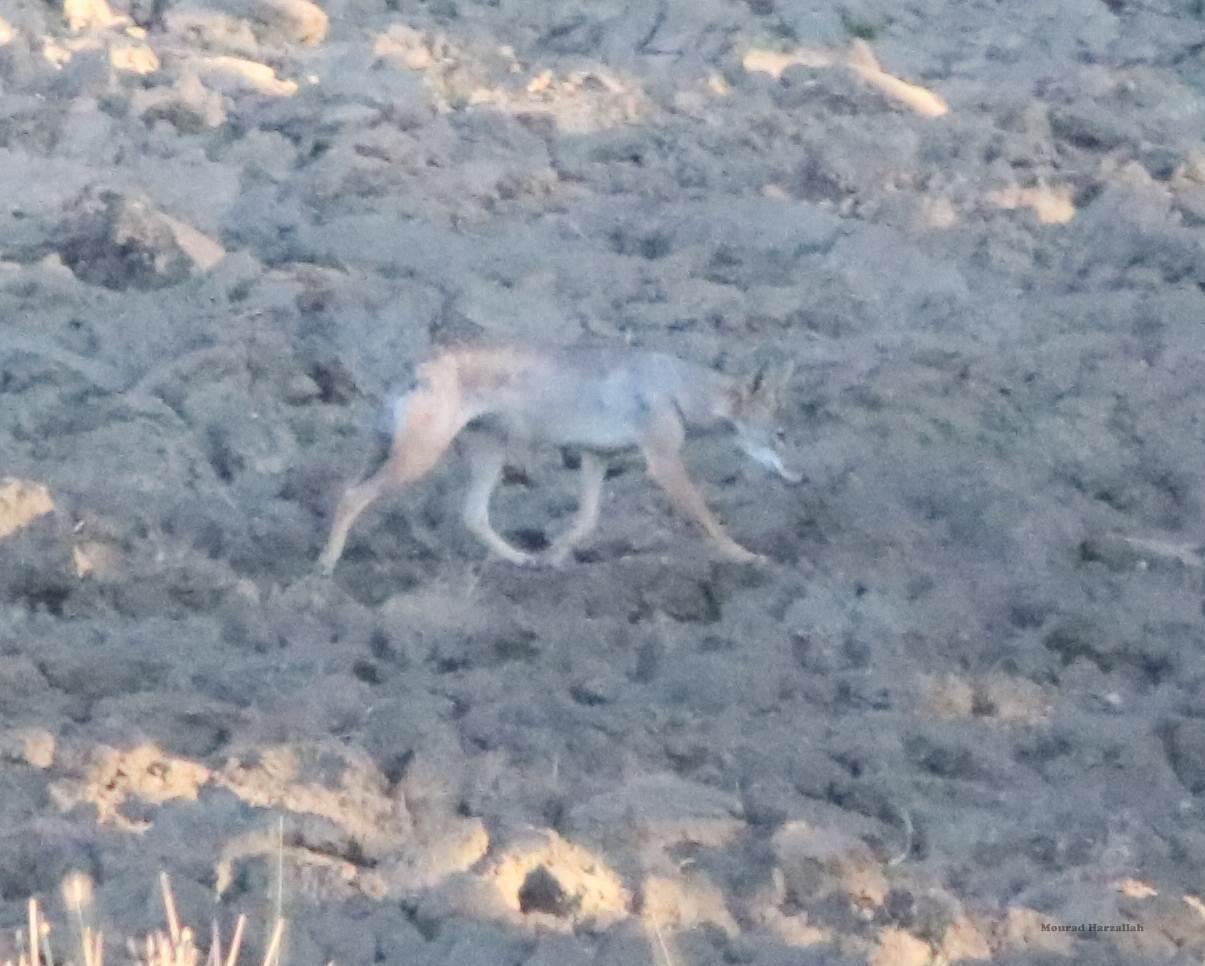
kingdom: Animalia
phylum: Chordata
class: Mammalia
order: Carnivora
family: Canidae
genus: Canis
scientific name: Canis lupaster
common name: African golden wolf
